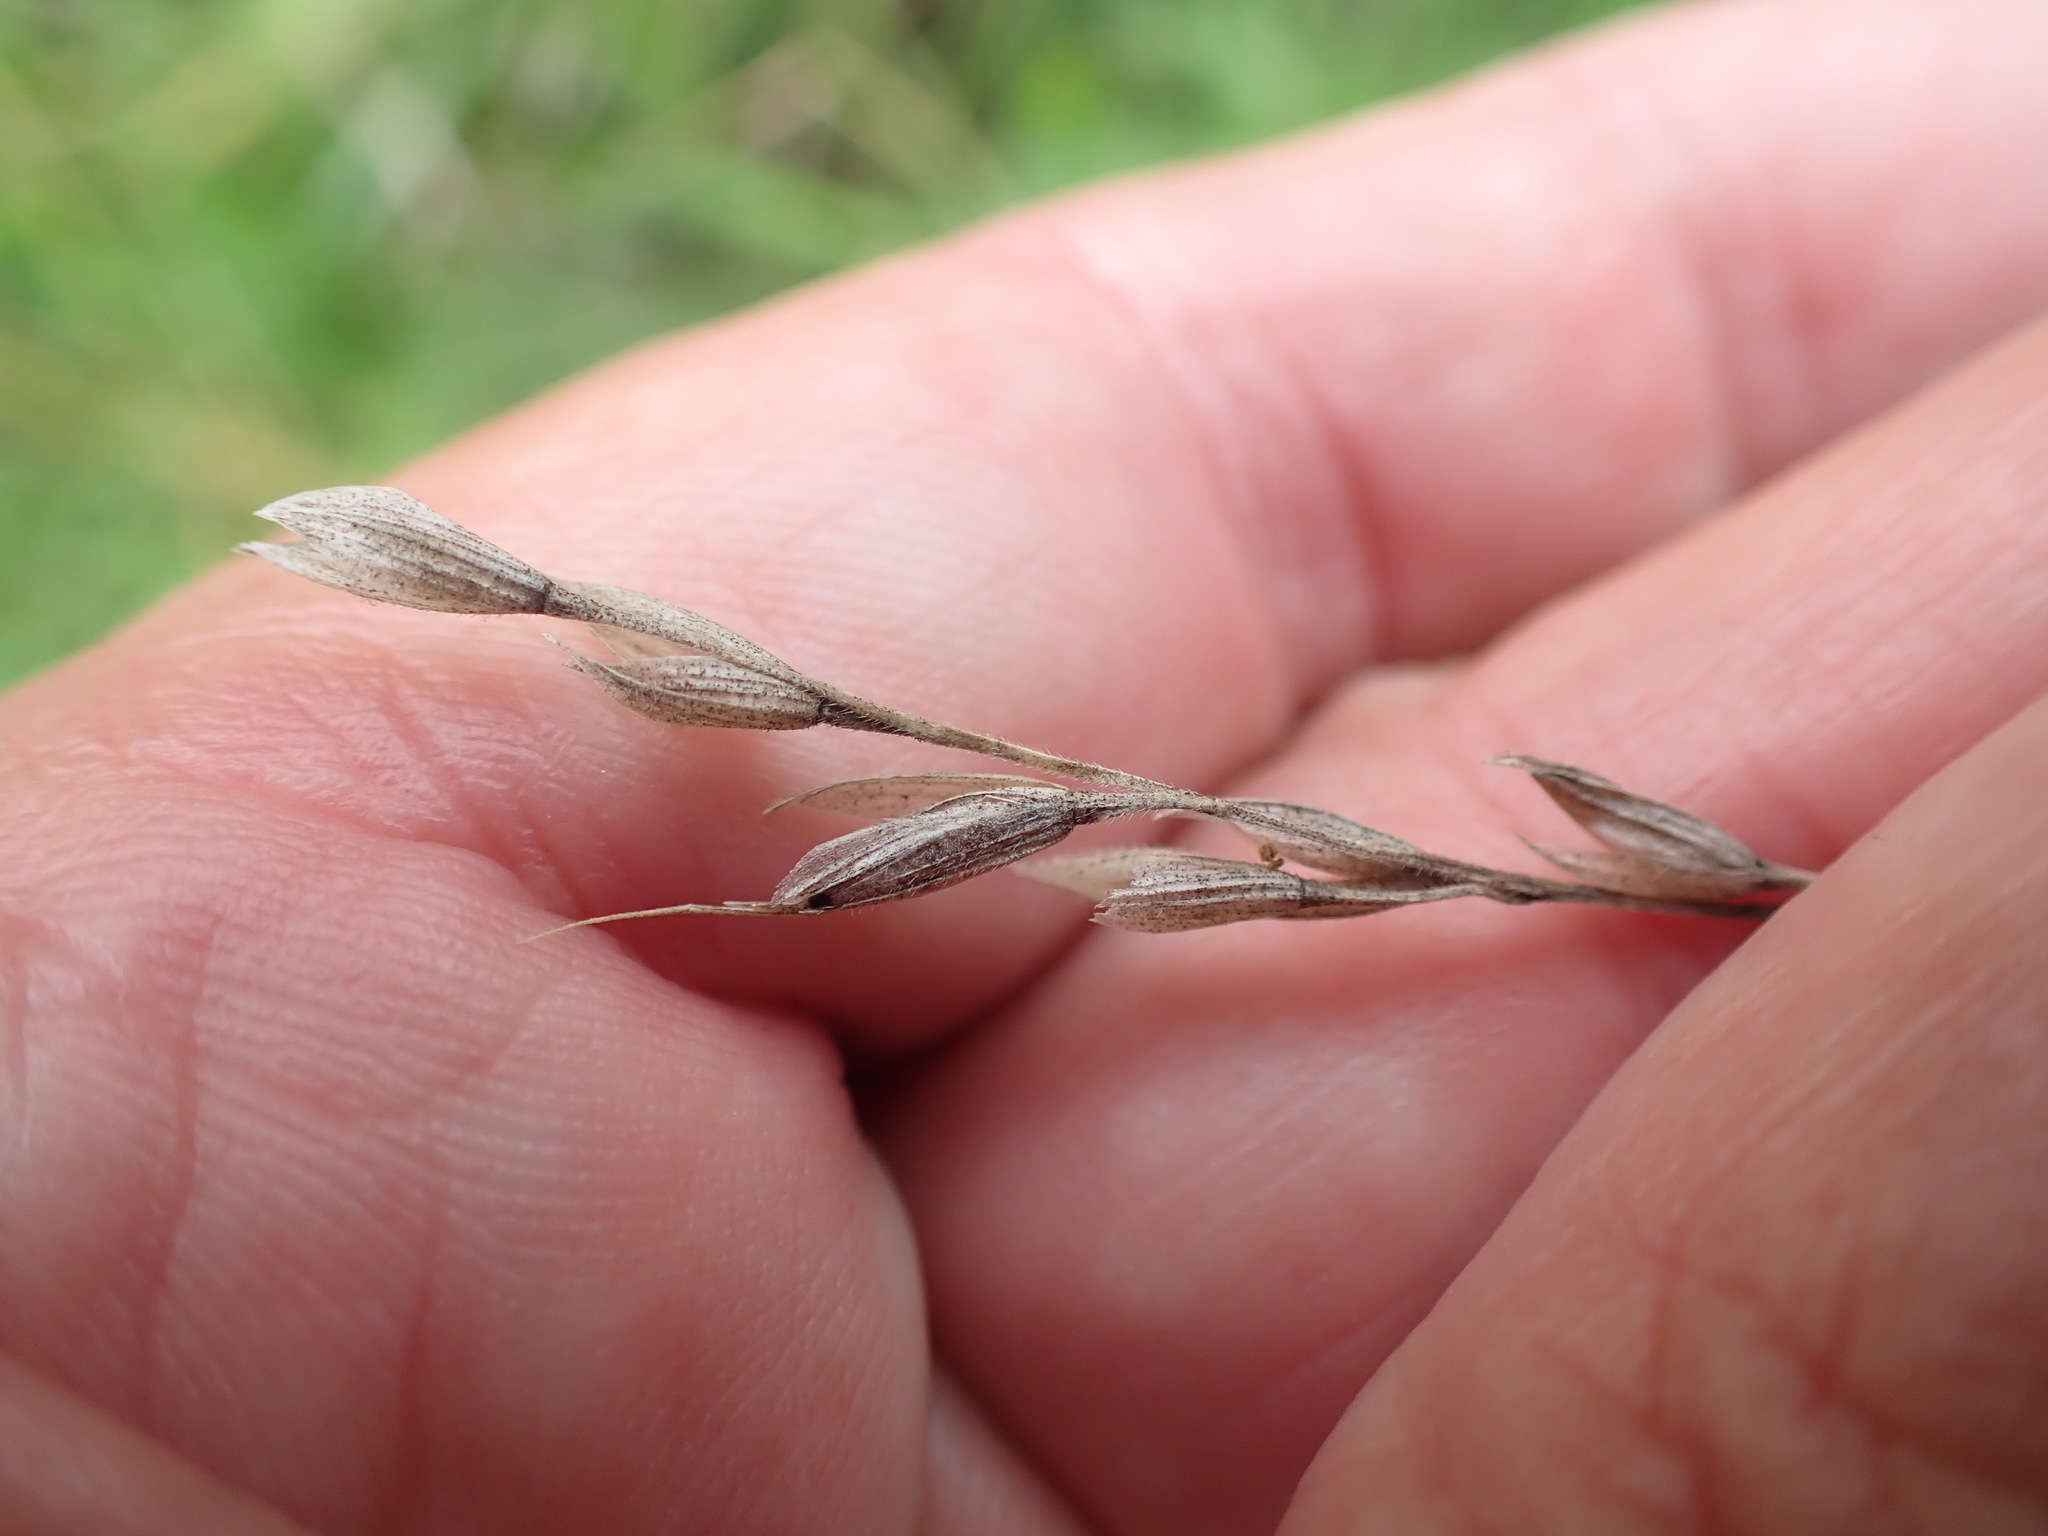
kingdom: Plantae
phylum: Tracheophyta
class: Liliopsida
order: Poales
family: Poaceae
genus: Bromus
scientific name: Bromus hordeaceus
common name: Soft brome
